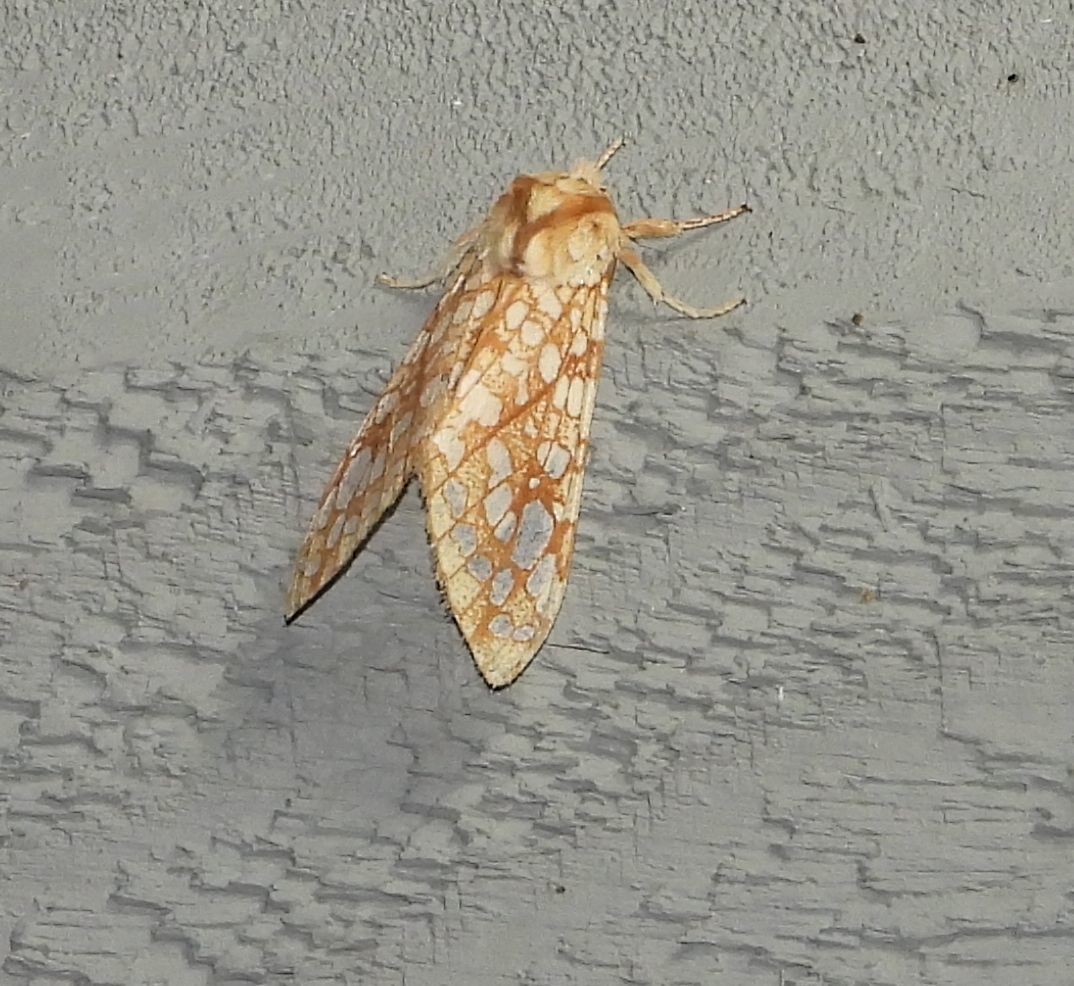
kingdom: Animalia
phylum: Arthropoda
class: Insecta
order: Lepidoptera
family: Erebidae
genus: Lophocampa
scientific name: Lophocampa caryae
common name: Hickory tussock moth
